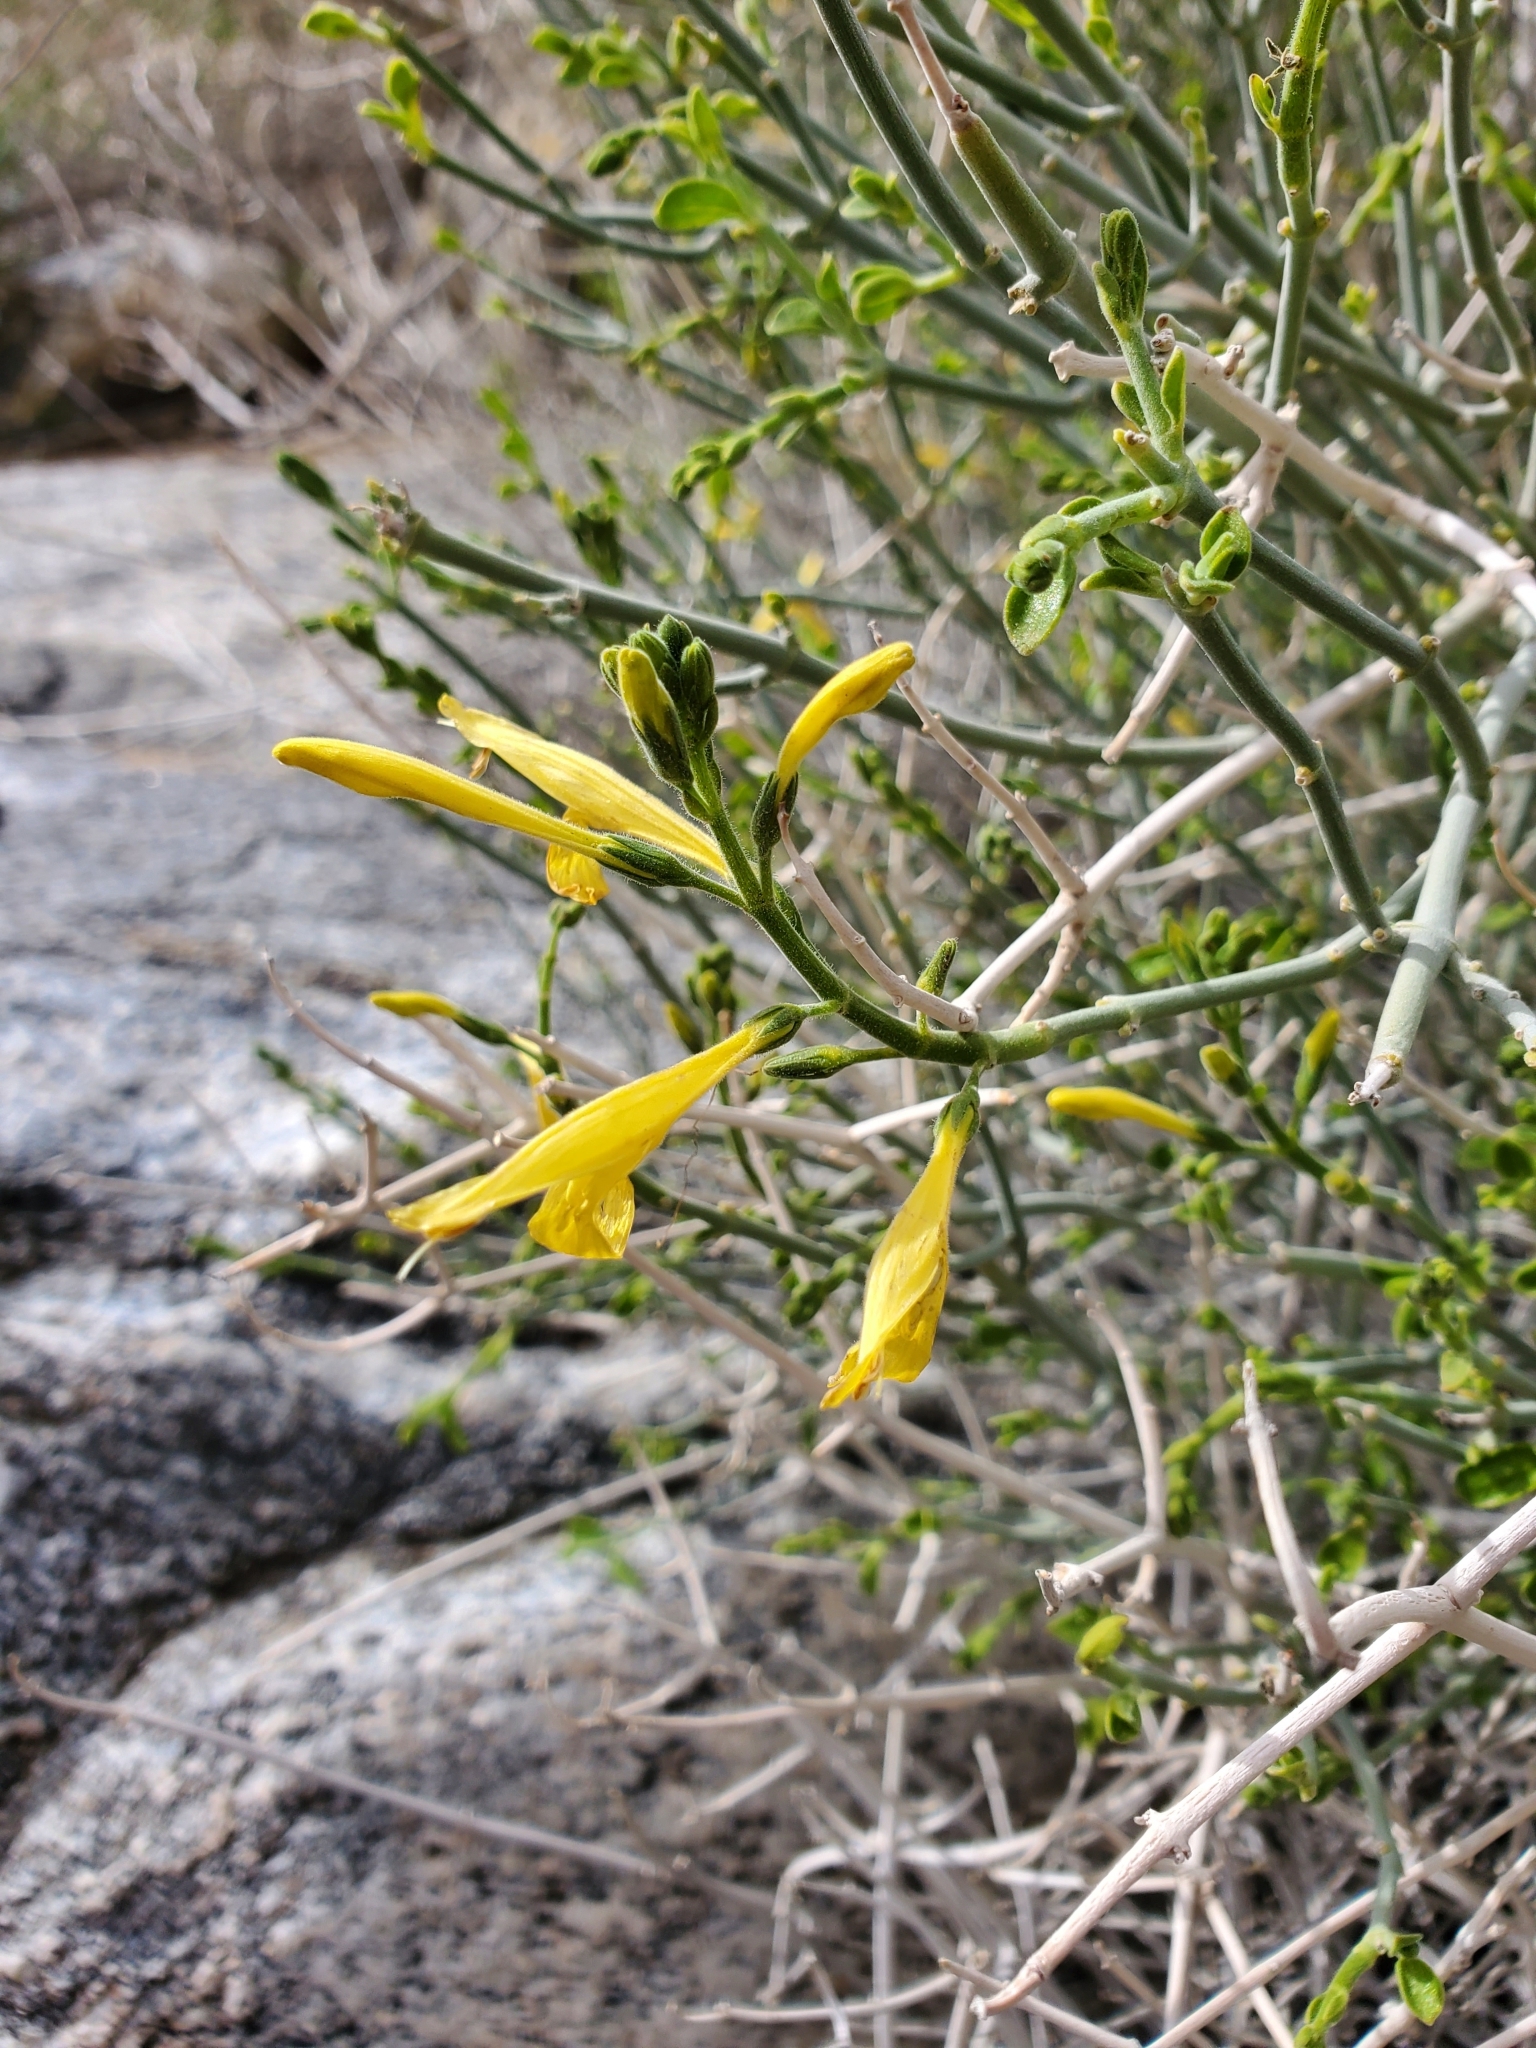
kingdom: Plantae
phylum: Tracheophyta
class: Magnoliopsida
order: Lamiales
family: Acanthaceae
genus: Justicia
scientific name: Justicia californica
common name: Chuparosa-honeysuckle
